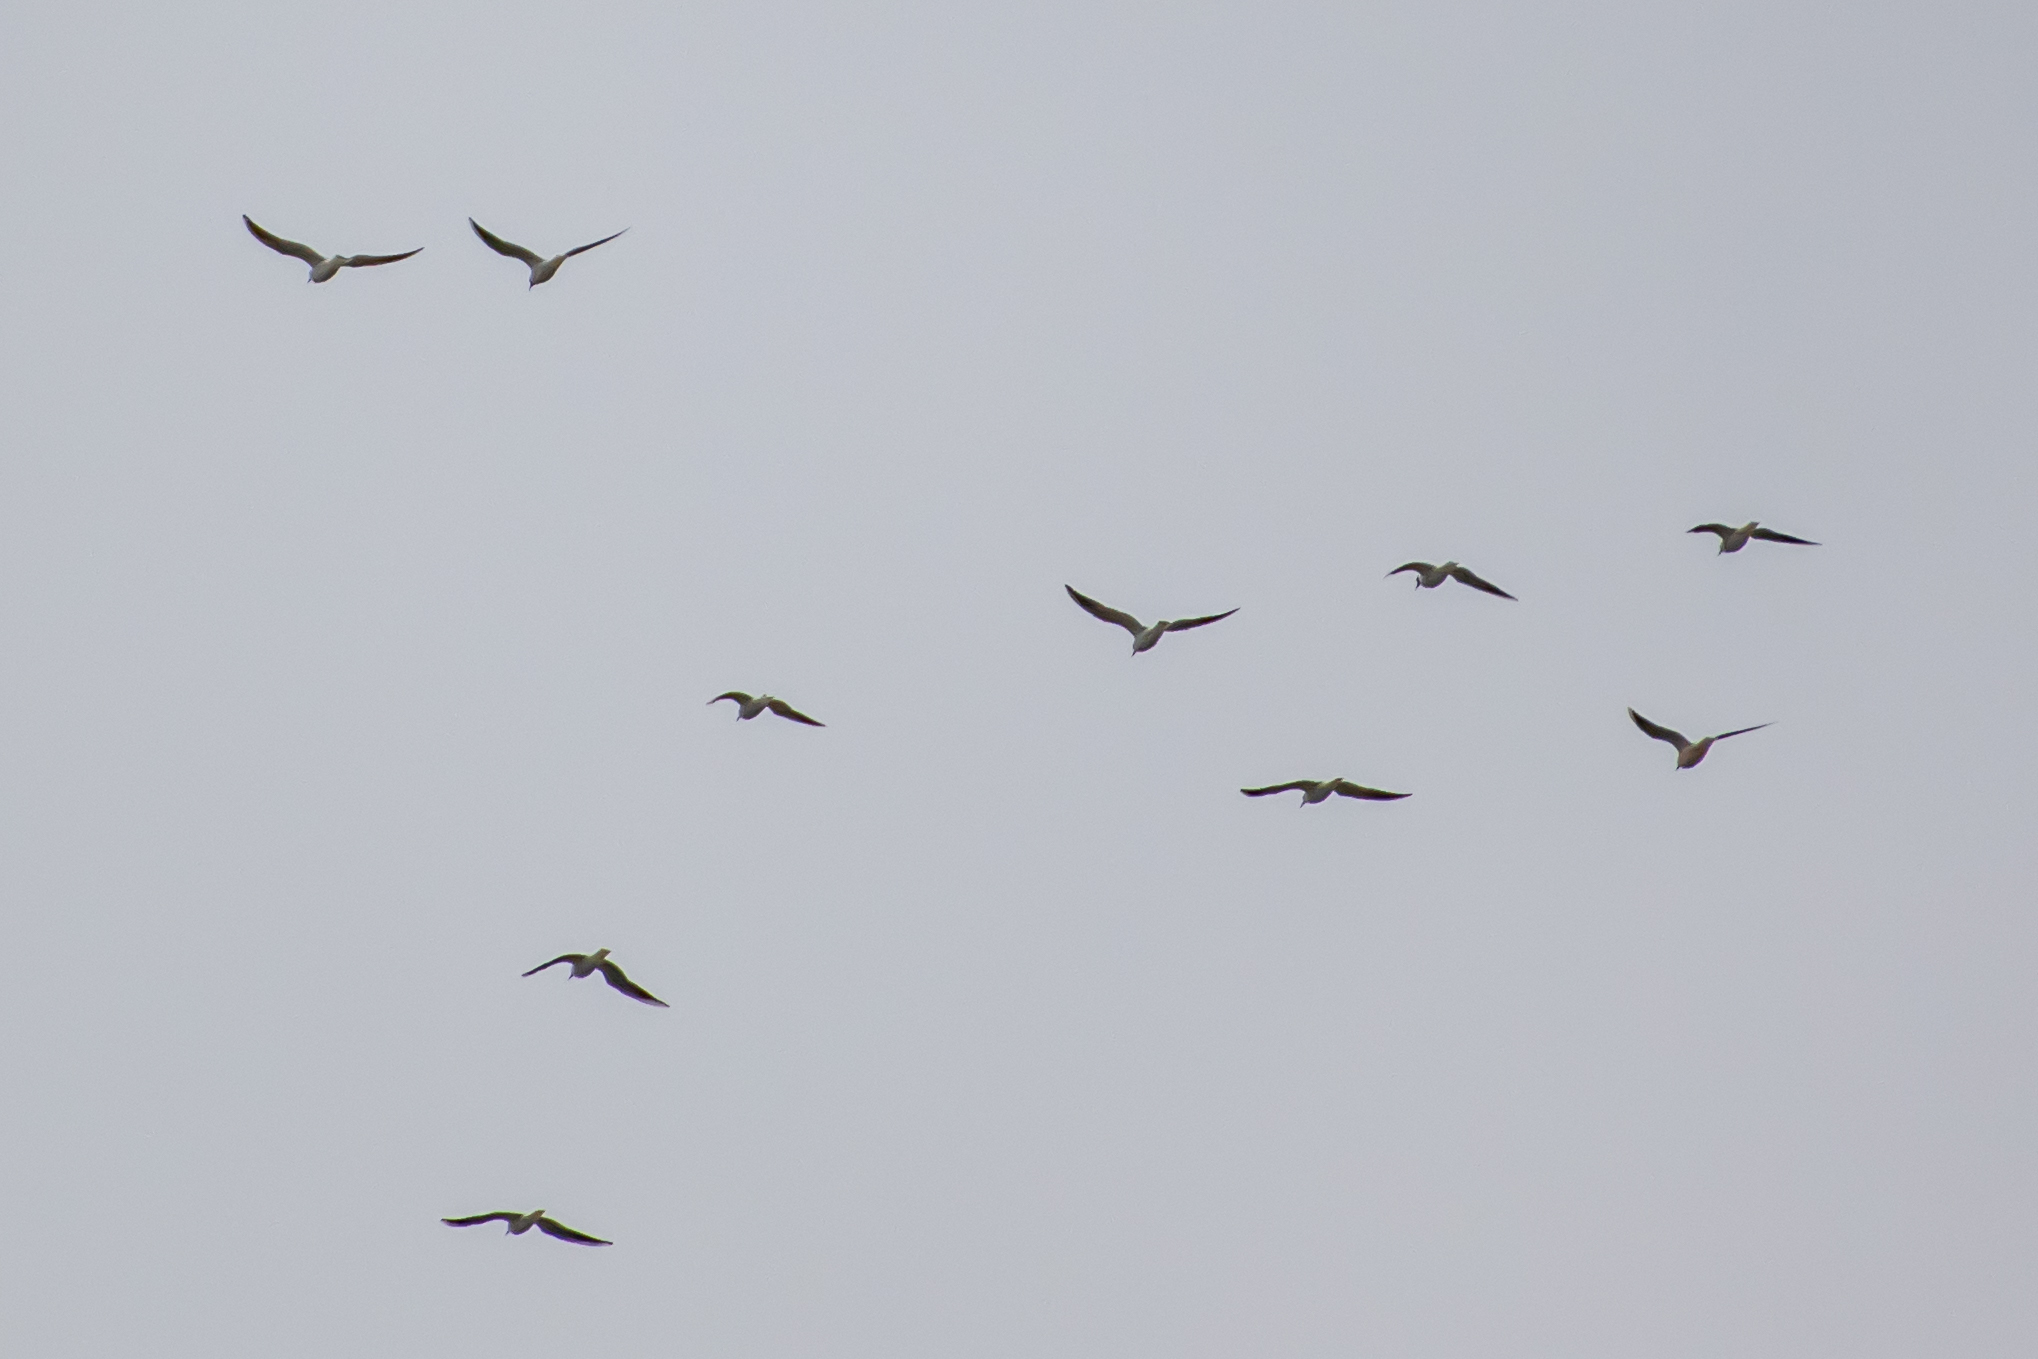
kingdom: Animalia
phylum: Chordata
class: Aves
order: Charadriiformes
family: Laridae
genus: Chroicocephalus
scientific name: Chroicocephalus ridibundus
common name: Black-headed gull
